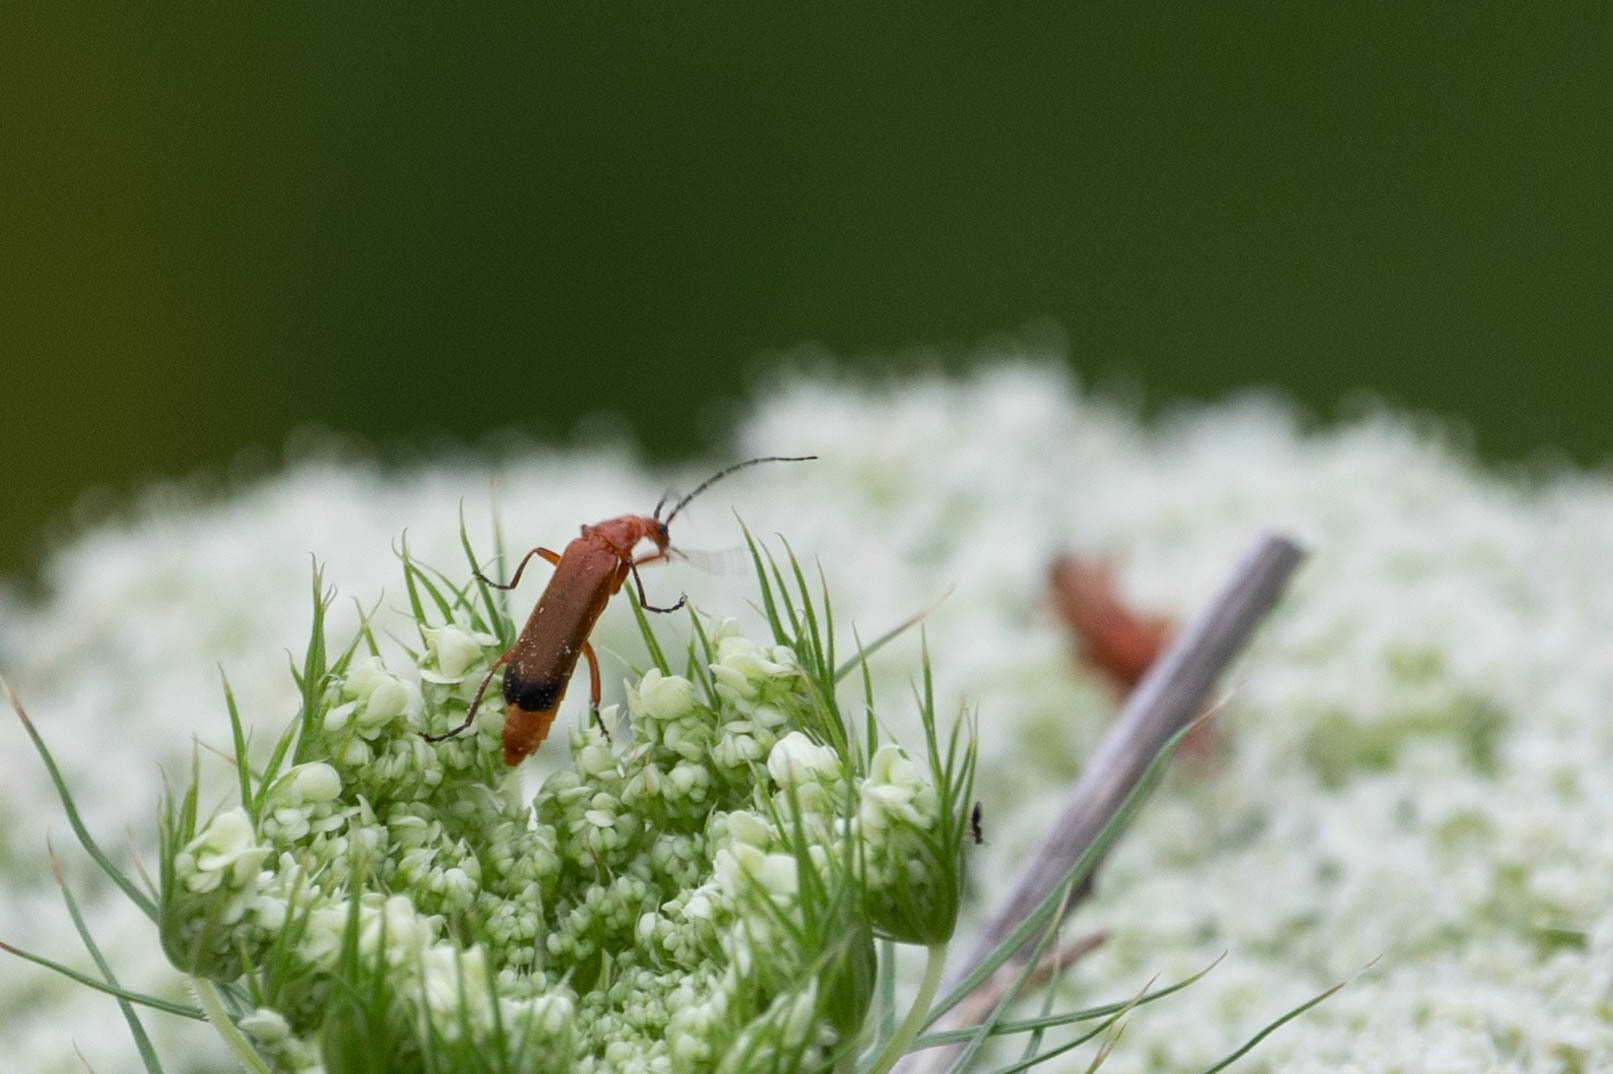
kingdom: Animalia
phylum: Arthropoda
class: Insecta
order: Coleoptera
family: Cantharidae
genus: Rhagonycha
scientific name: Rhagonycha fulva
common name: Common red soldier beetle
